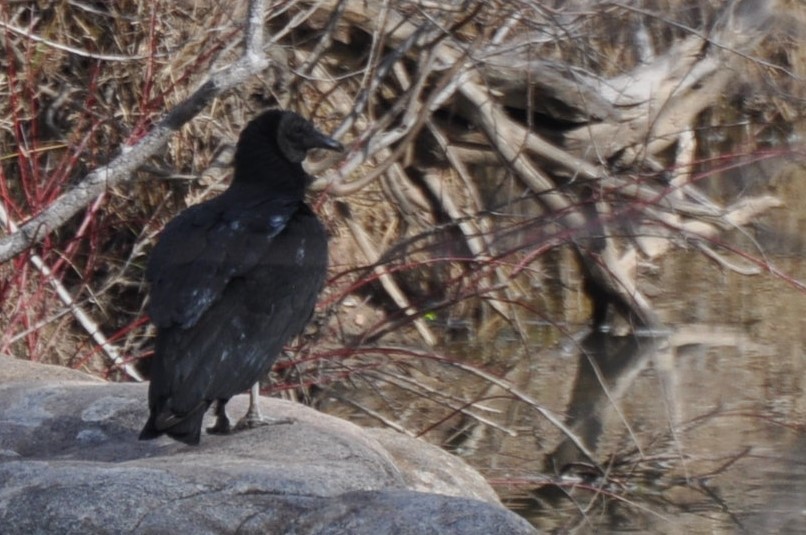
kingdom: Animalia
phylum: Chordata
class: Aves
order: Accipitriformes
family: Cathartidae
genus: Coragyps
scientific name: Coragyps atratus
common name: Black vulture
